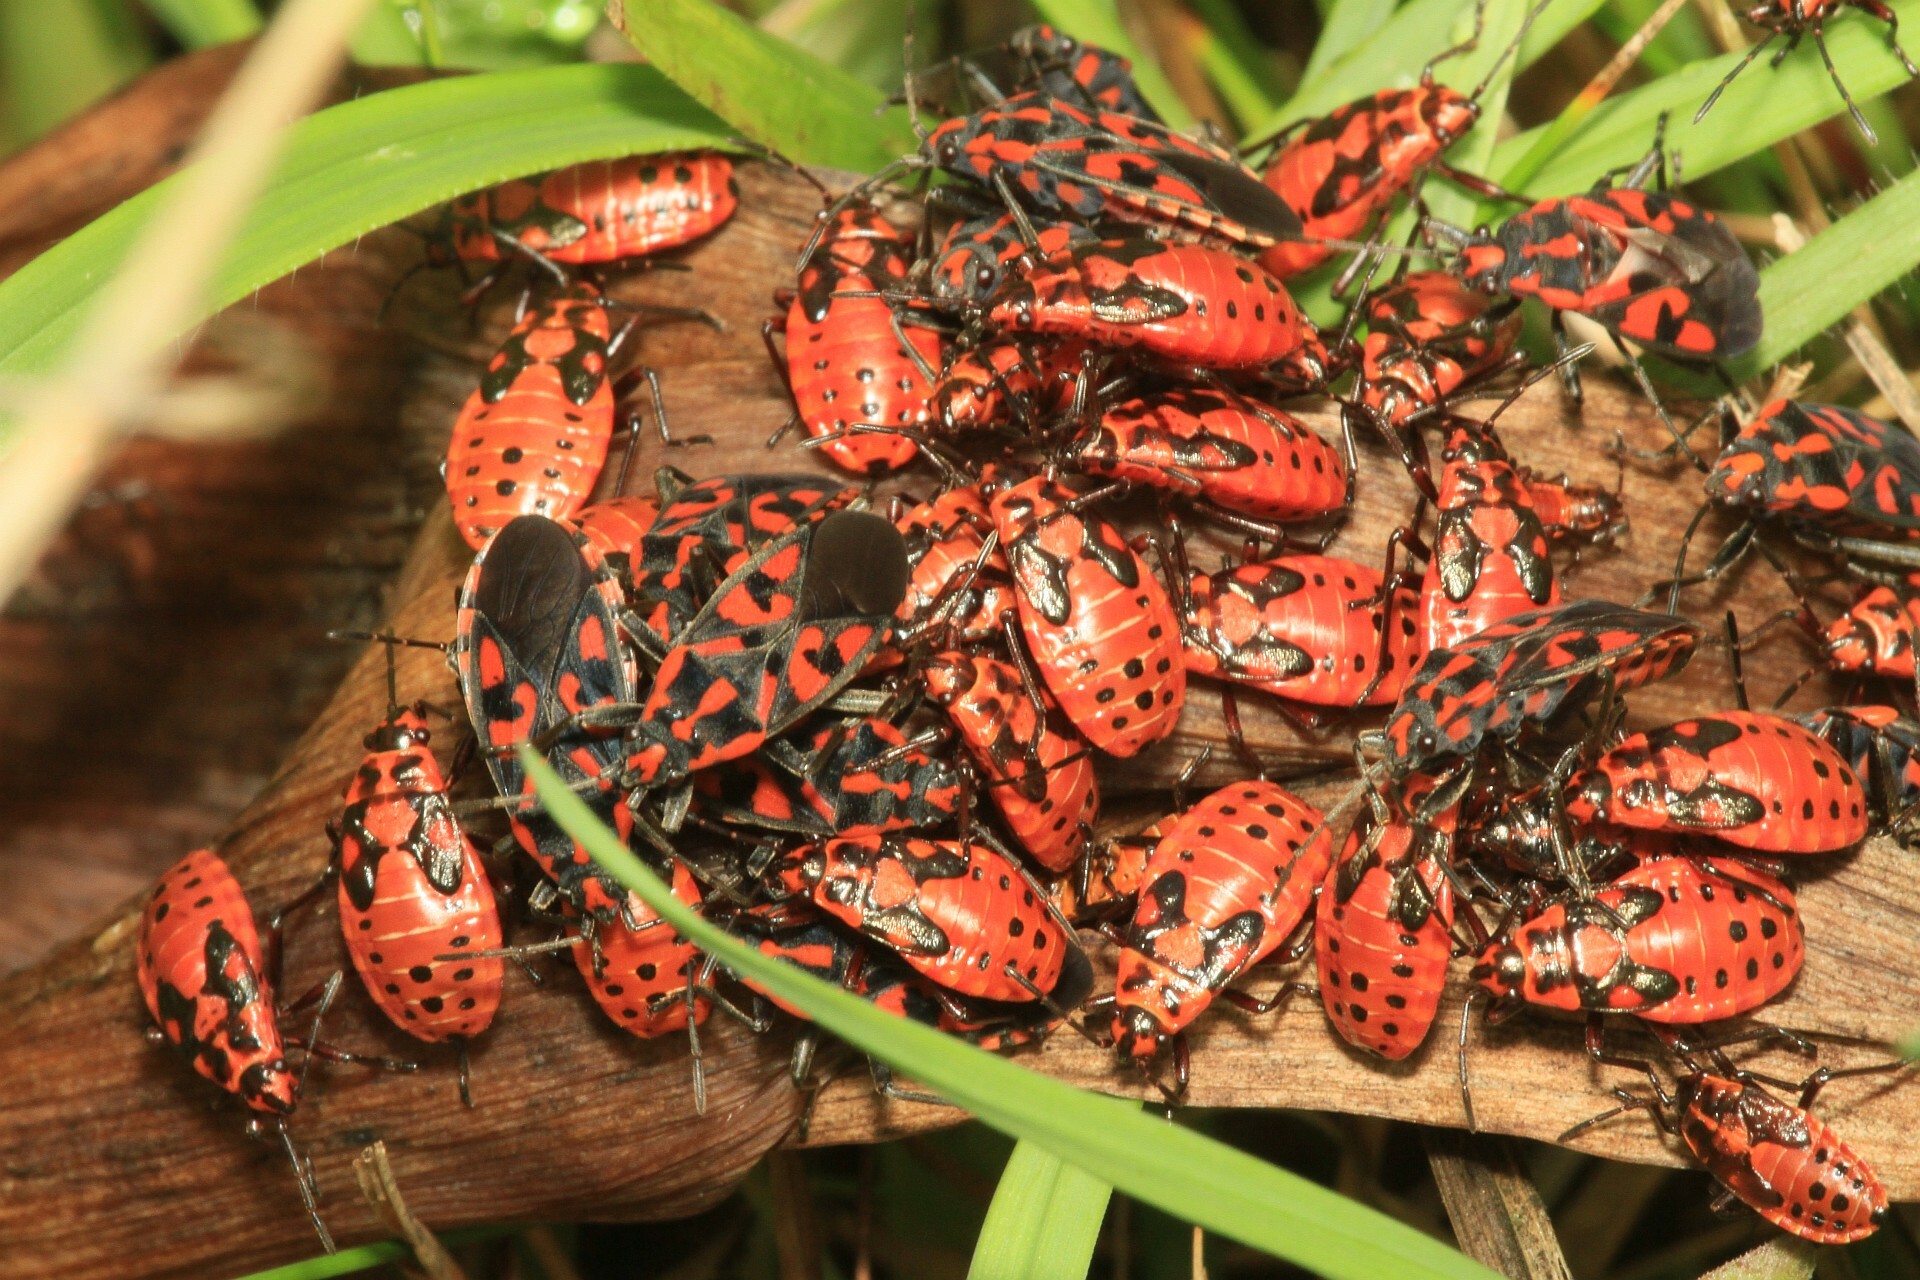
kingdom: Animalia
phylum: Arthropoda
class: Insecta
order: Hemiptera
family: Lygaeidae
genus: Spilostethus
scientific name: Spilostethus saxatilis
